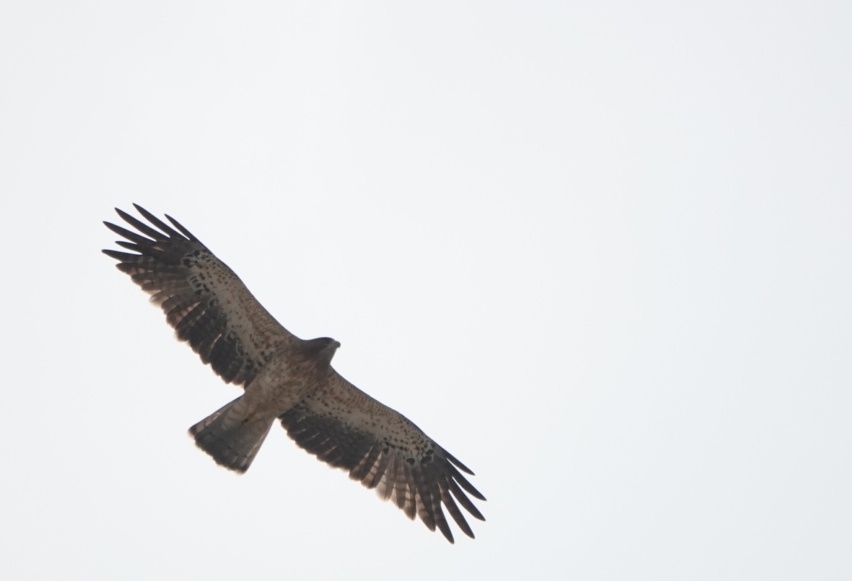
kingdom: Animalia
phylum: Chordata
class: Aves
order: Accipitriformes
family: Accipitridae
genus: Hieraaetus
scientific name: Hieraaetus pennatus
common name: Booted eagle
